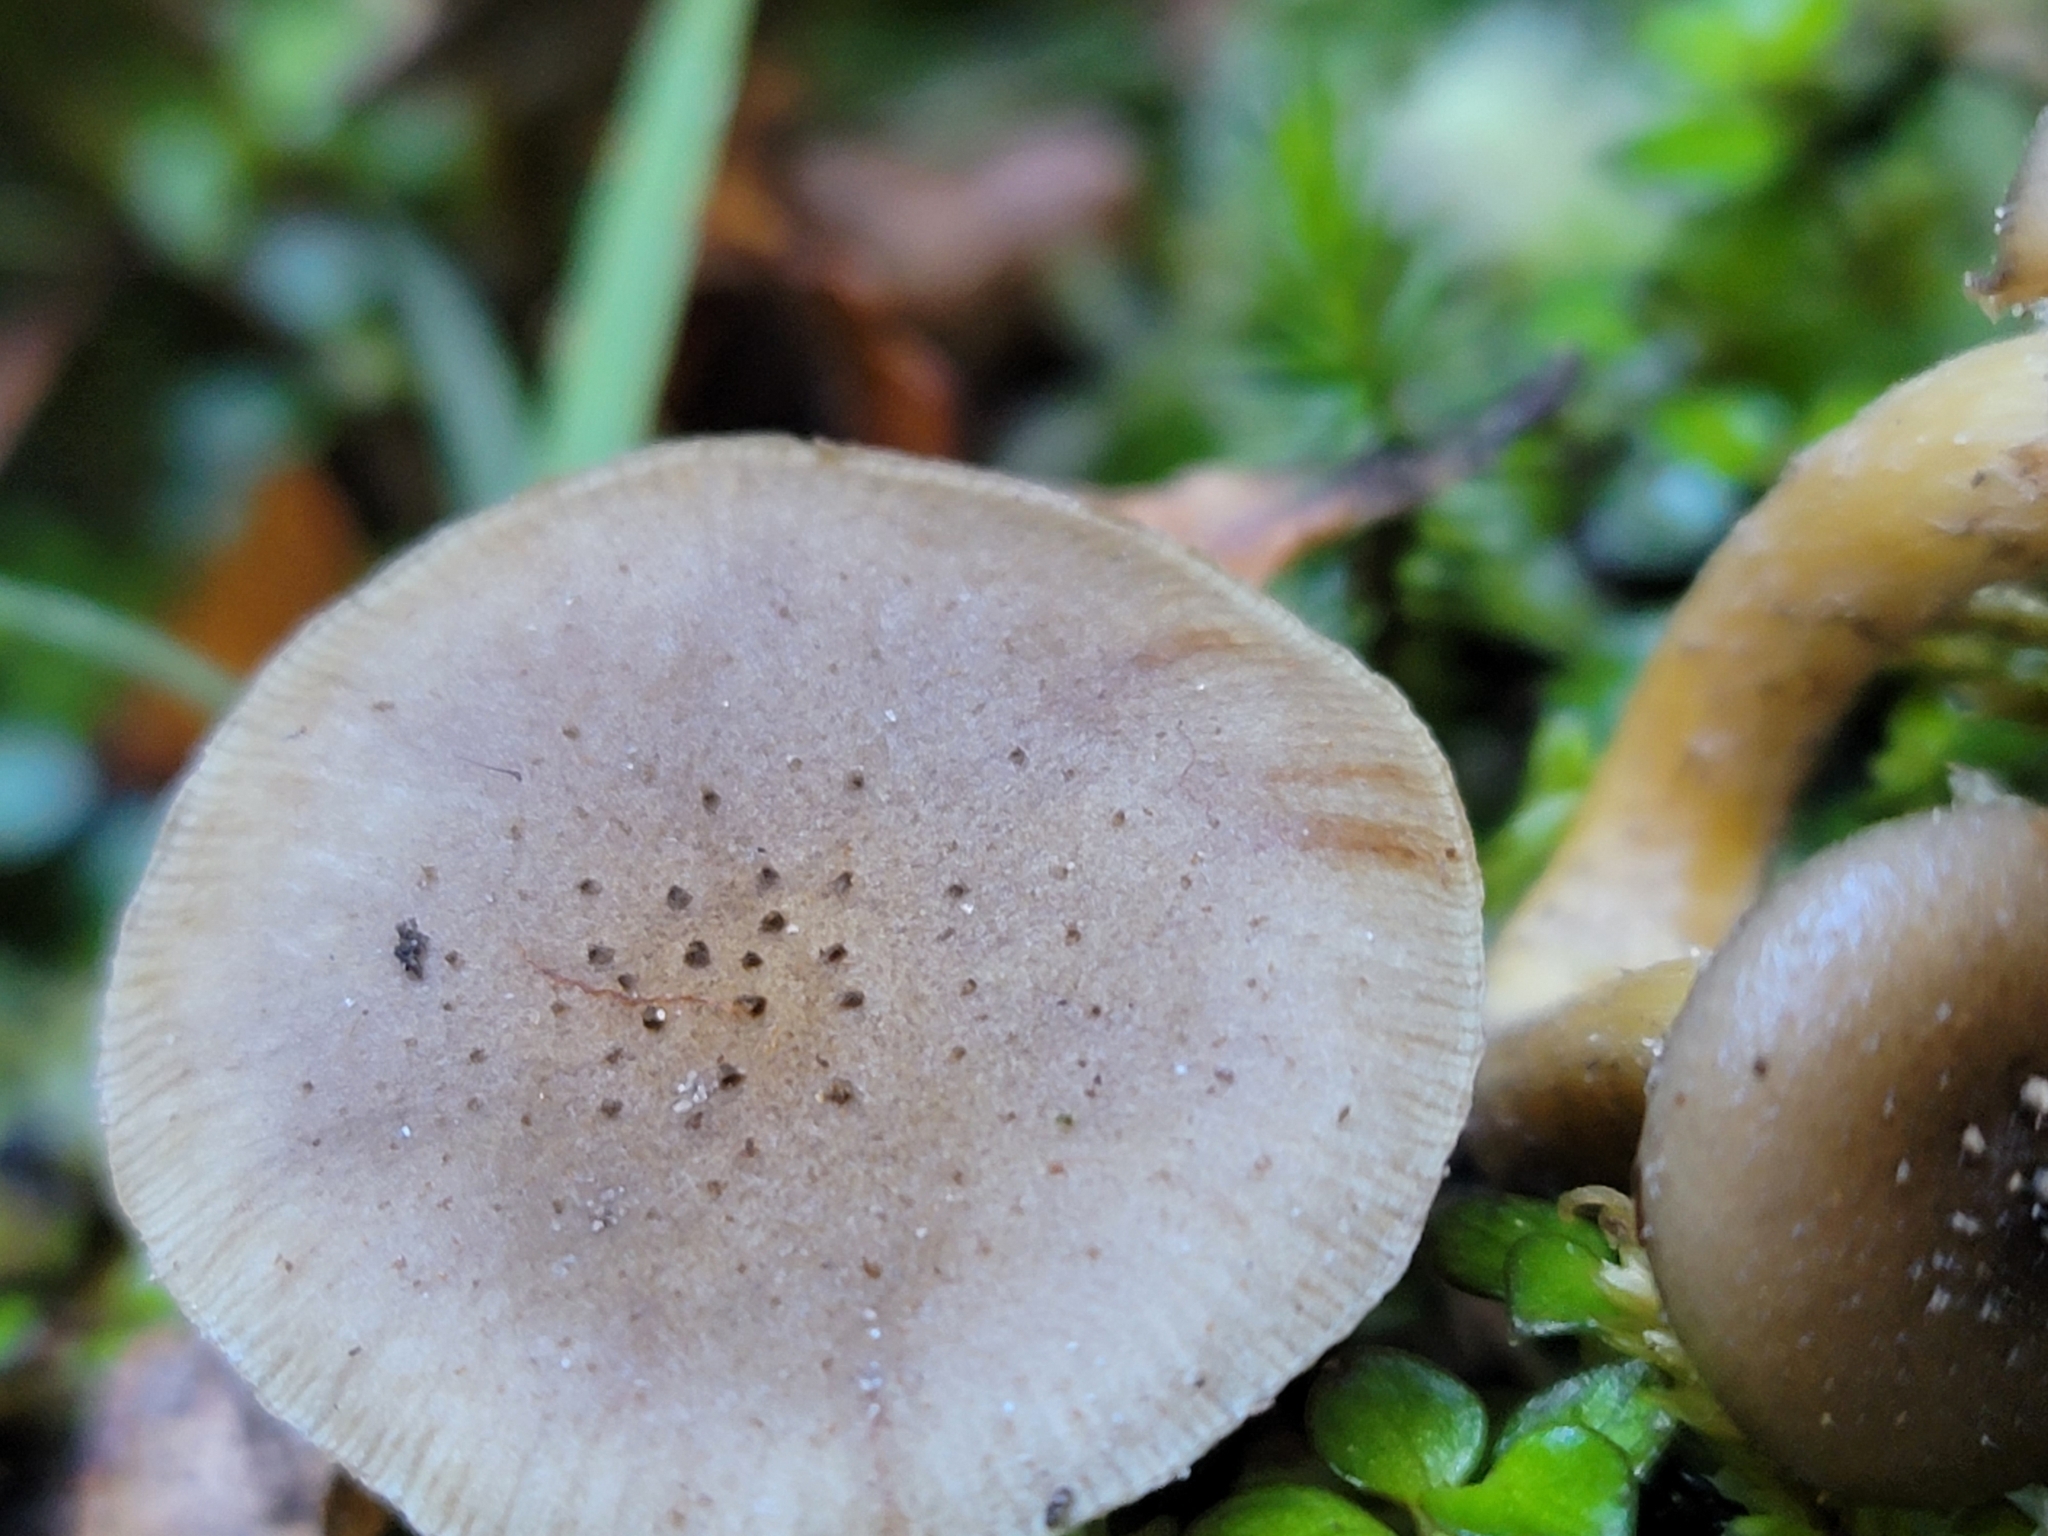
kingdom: Fungi
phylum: Basidiomycota
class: Agaricomycetes
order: Agaricales
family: Physalacriaceae
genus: Armillaria
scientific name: Armillaria novae-zelandiae
